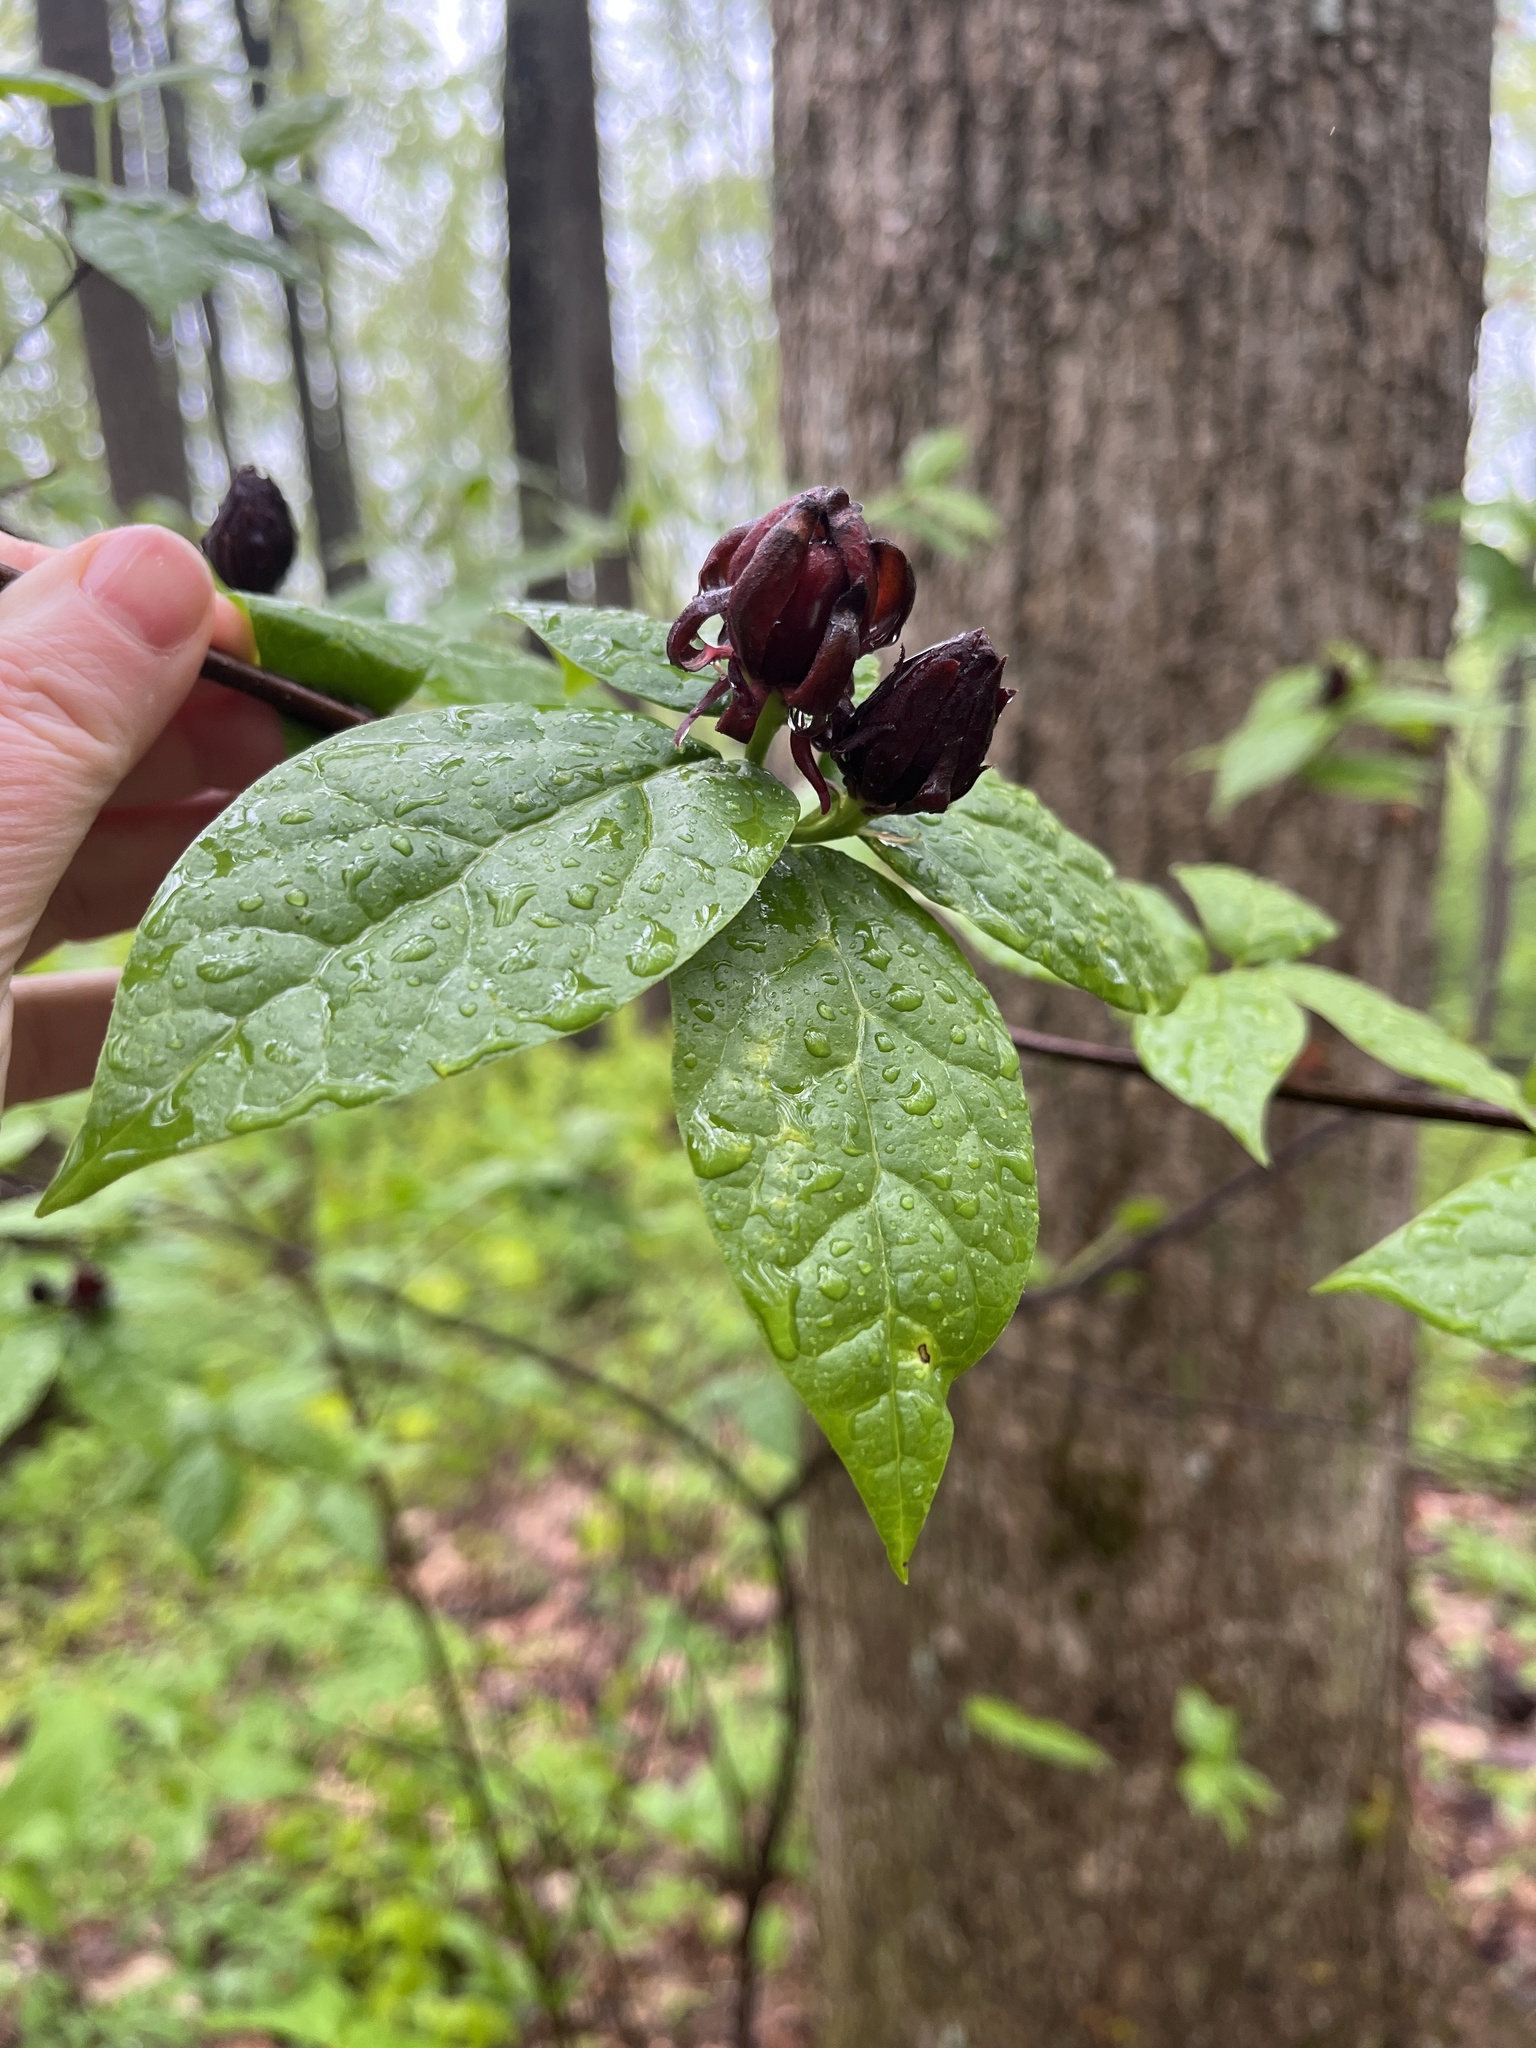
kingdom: Plantae
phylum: Tracheophyta
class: Magnoliopsida
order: Laurales
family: Calycanthaceae
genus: Calycanthus
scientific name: Calycanthus floridus
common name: Carolina-allspice
